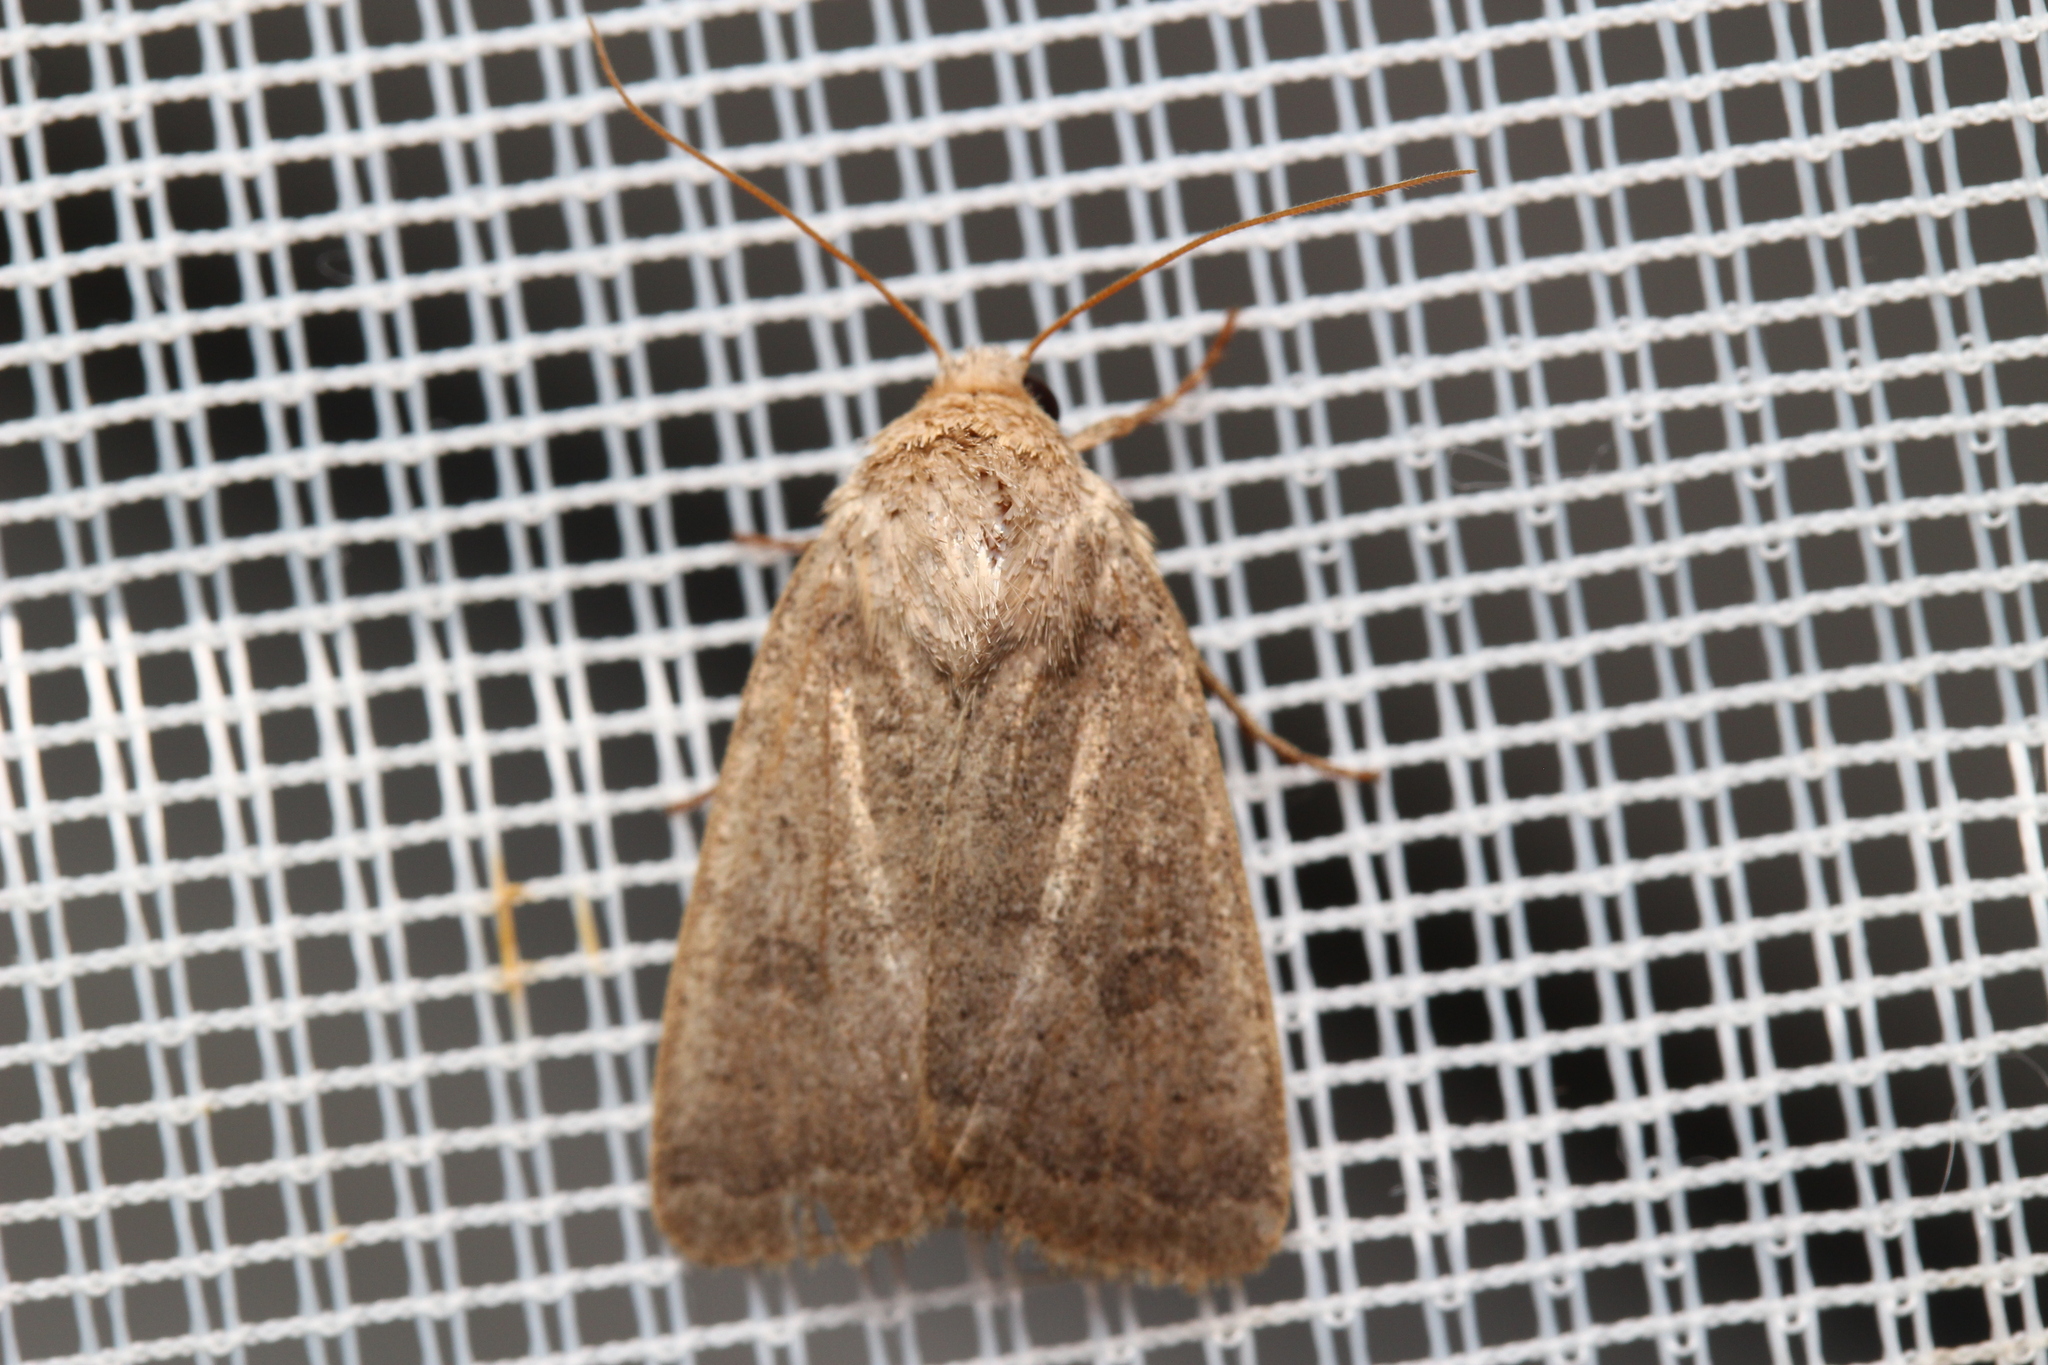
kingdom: Animalia
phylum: Arthropoda
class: Insecta
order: Lepidoptera
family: Noctuidae
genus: Noctua
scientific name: Noctua comes
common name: Lesser yellow underwing
